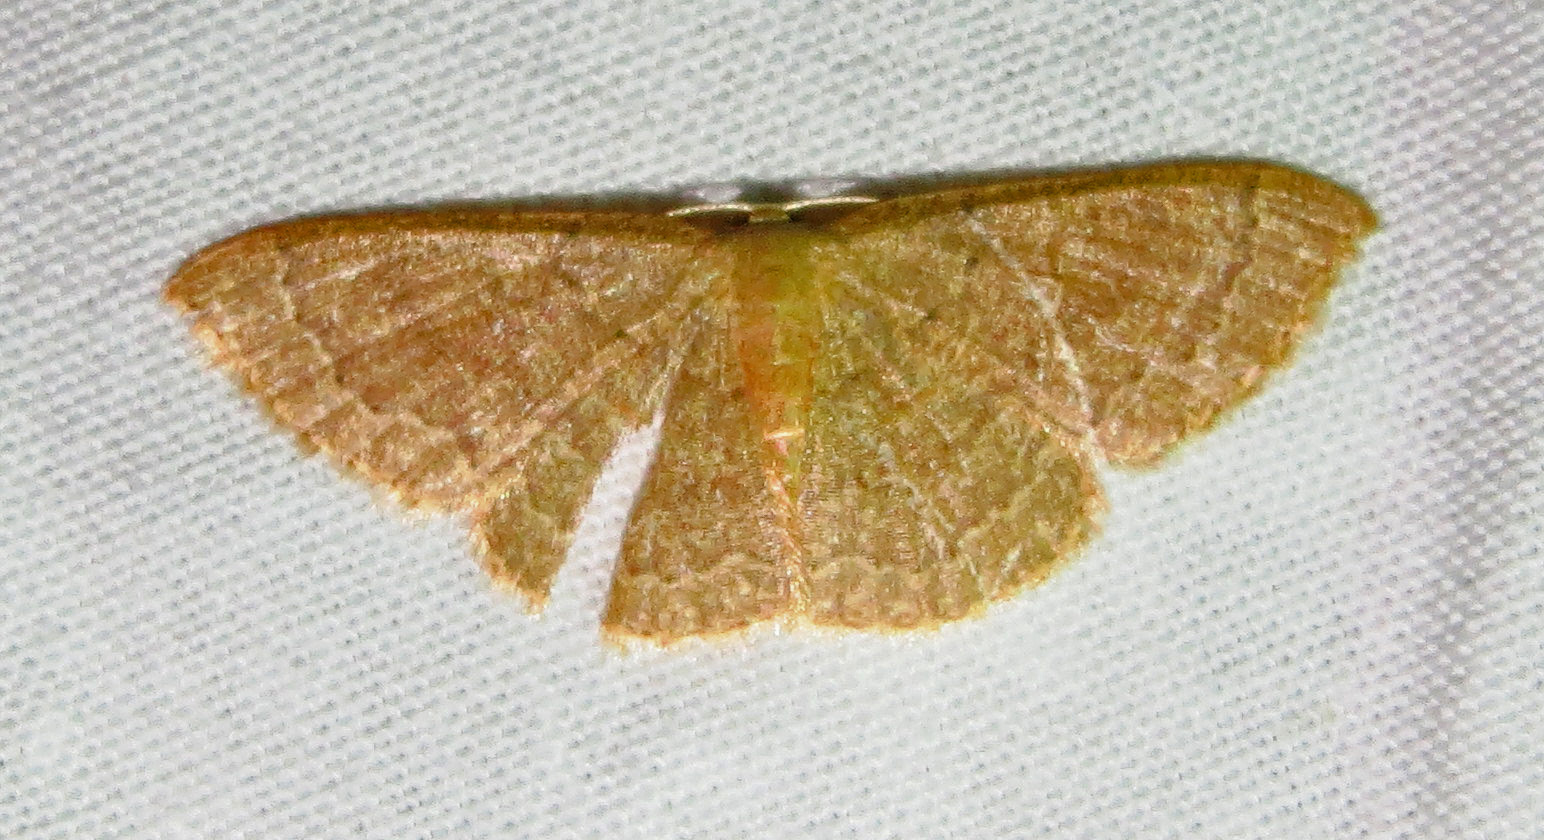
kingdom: Animalia
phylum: Arthropoda
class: Insecta
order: Lepidoptera
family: Geometridae
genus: Pleuroprucha
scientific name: Pleuroprucha insulsaria
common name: Common tan wave
